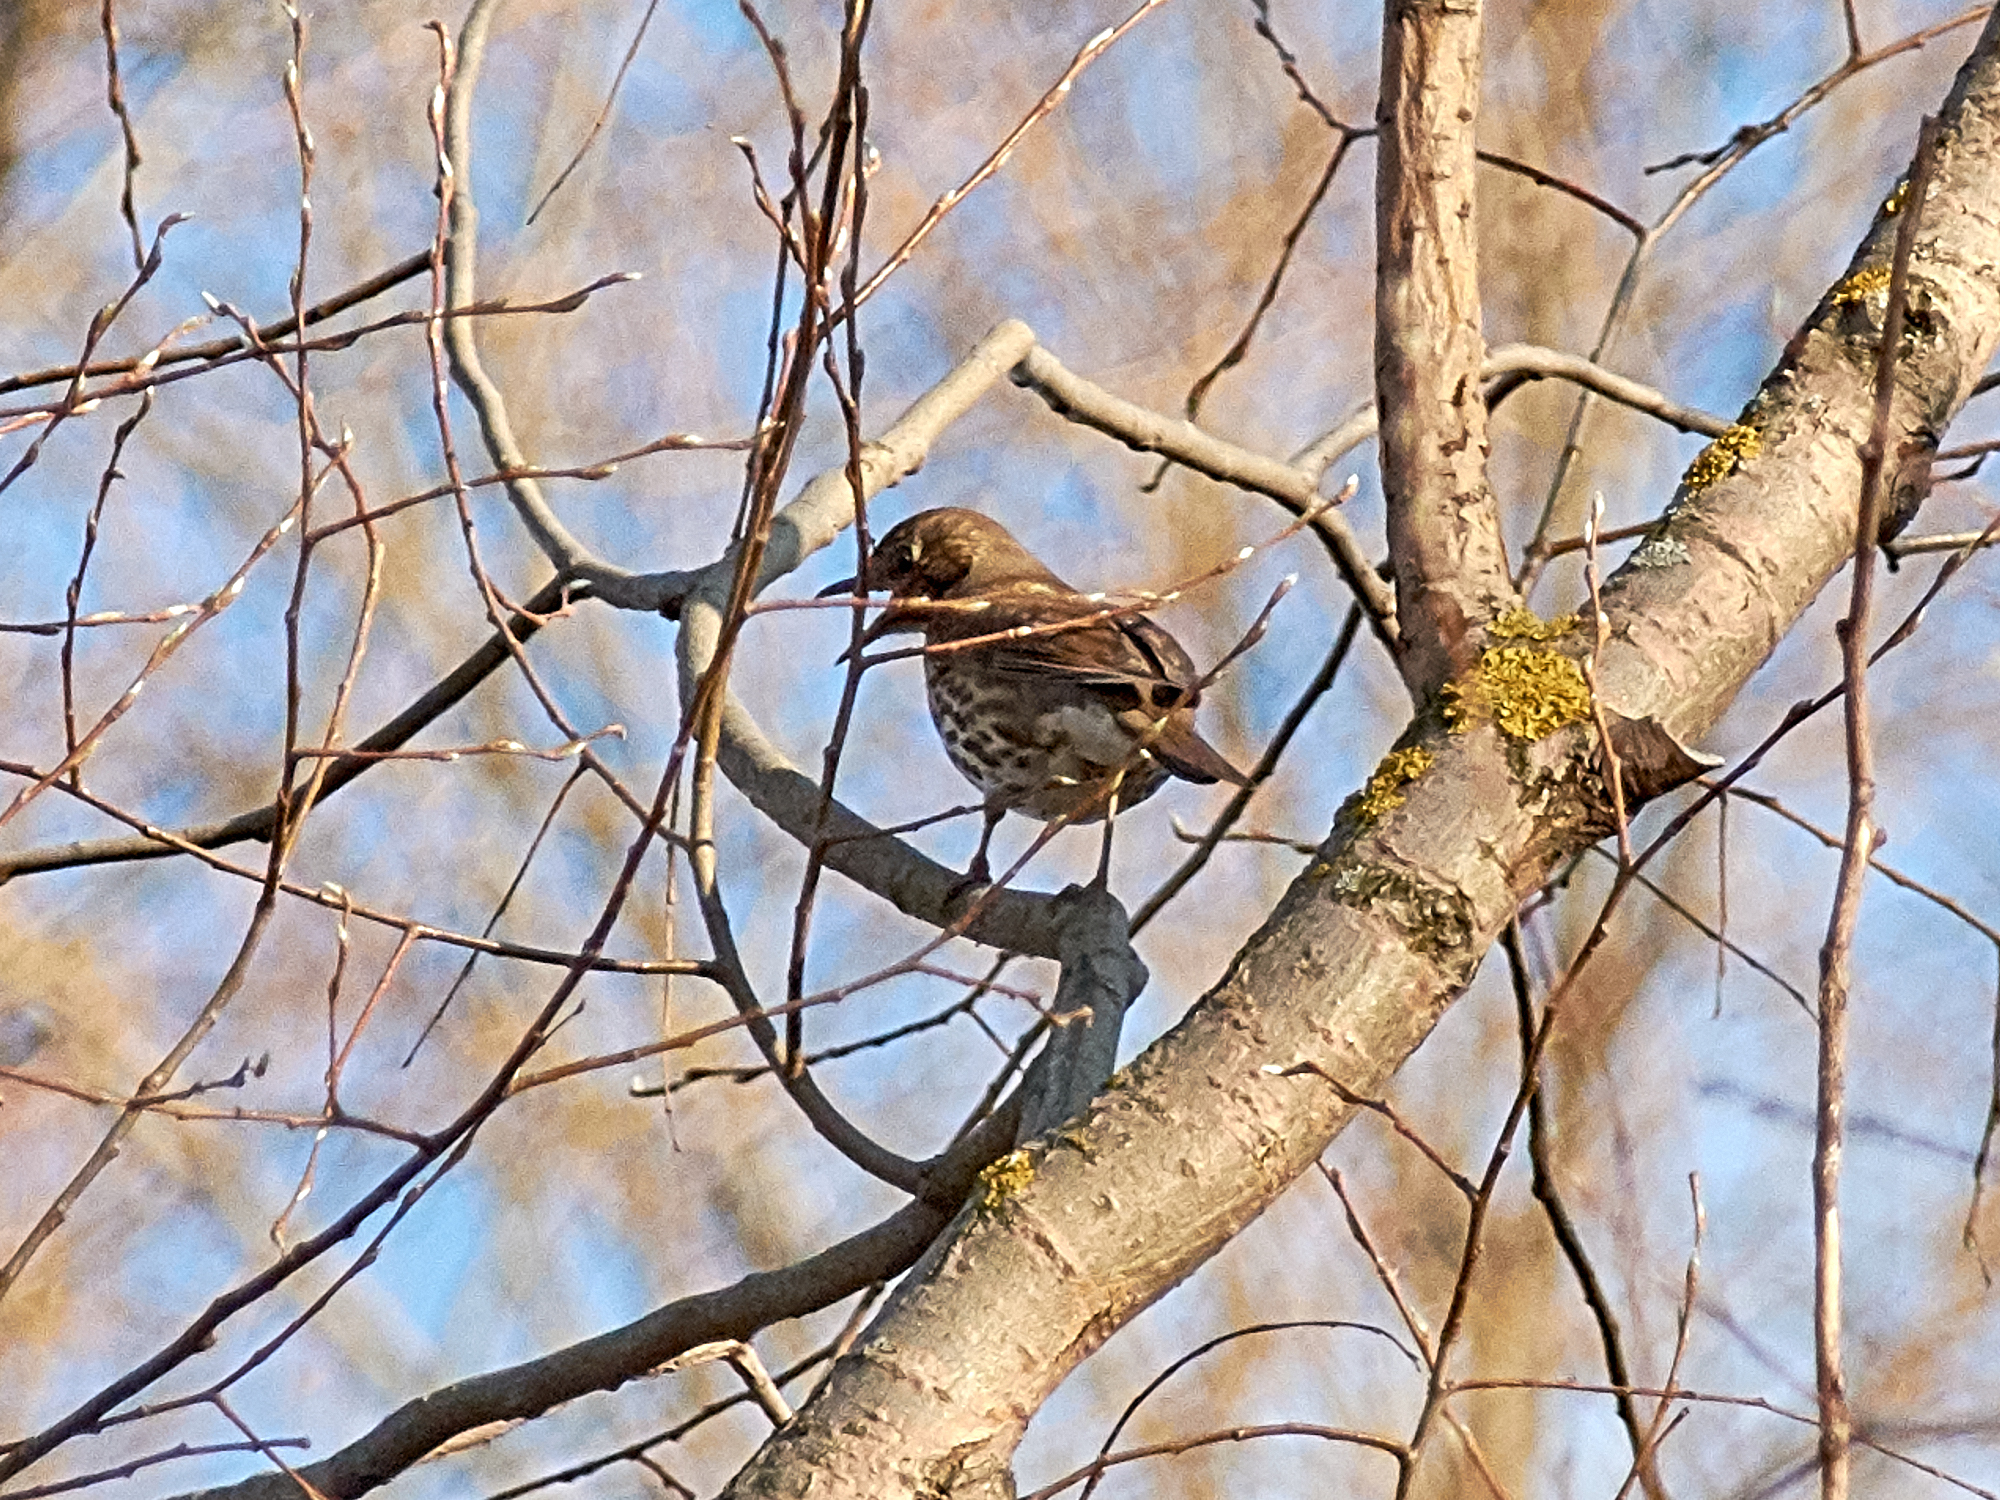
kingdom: Animalia
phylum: Chordata
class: Aves
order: Passeriformes
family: Turdidae
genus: Turdus
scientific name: Turdus philomelos
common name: Song thrush
